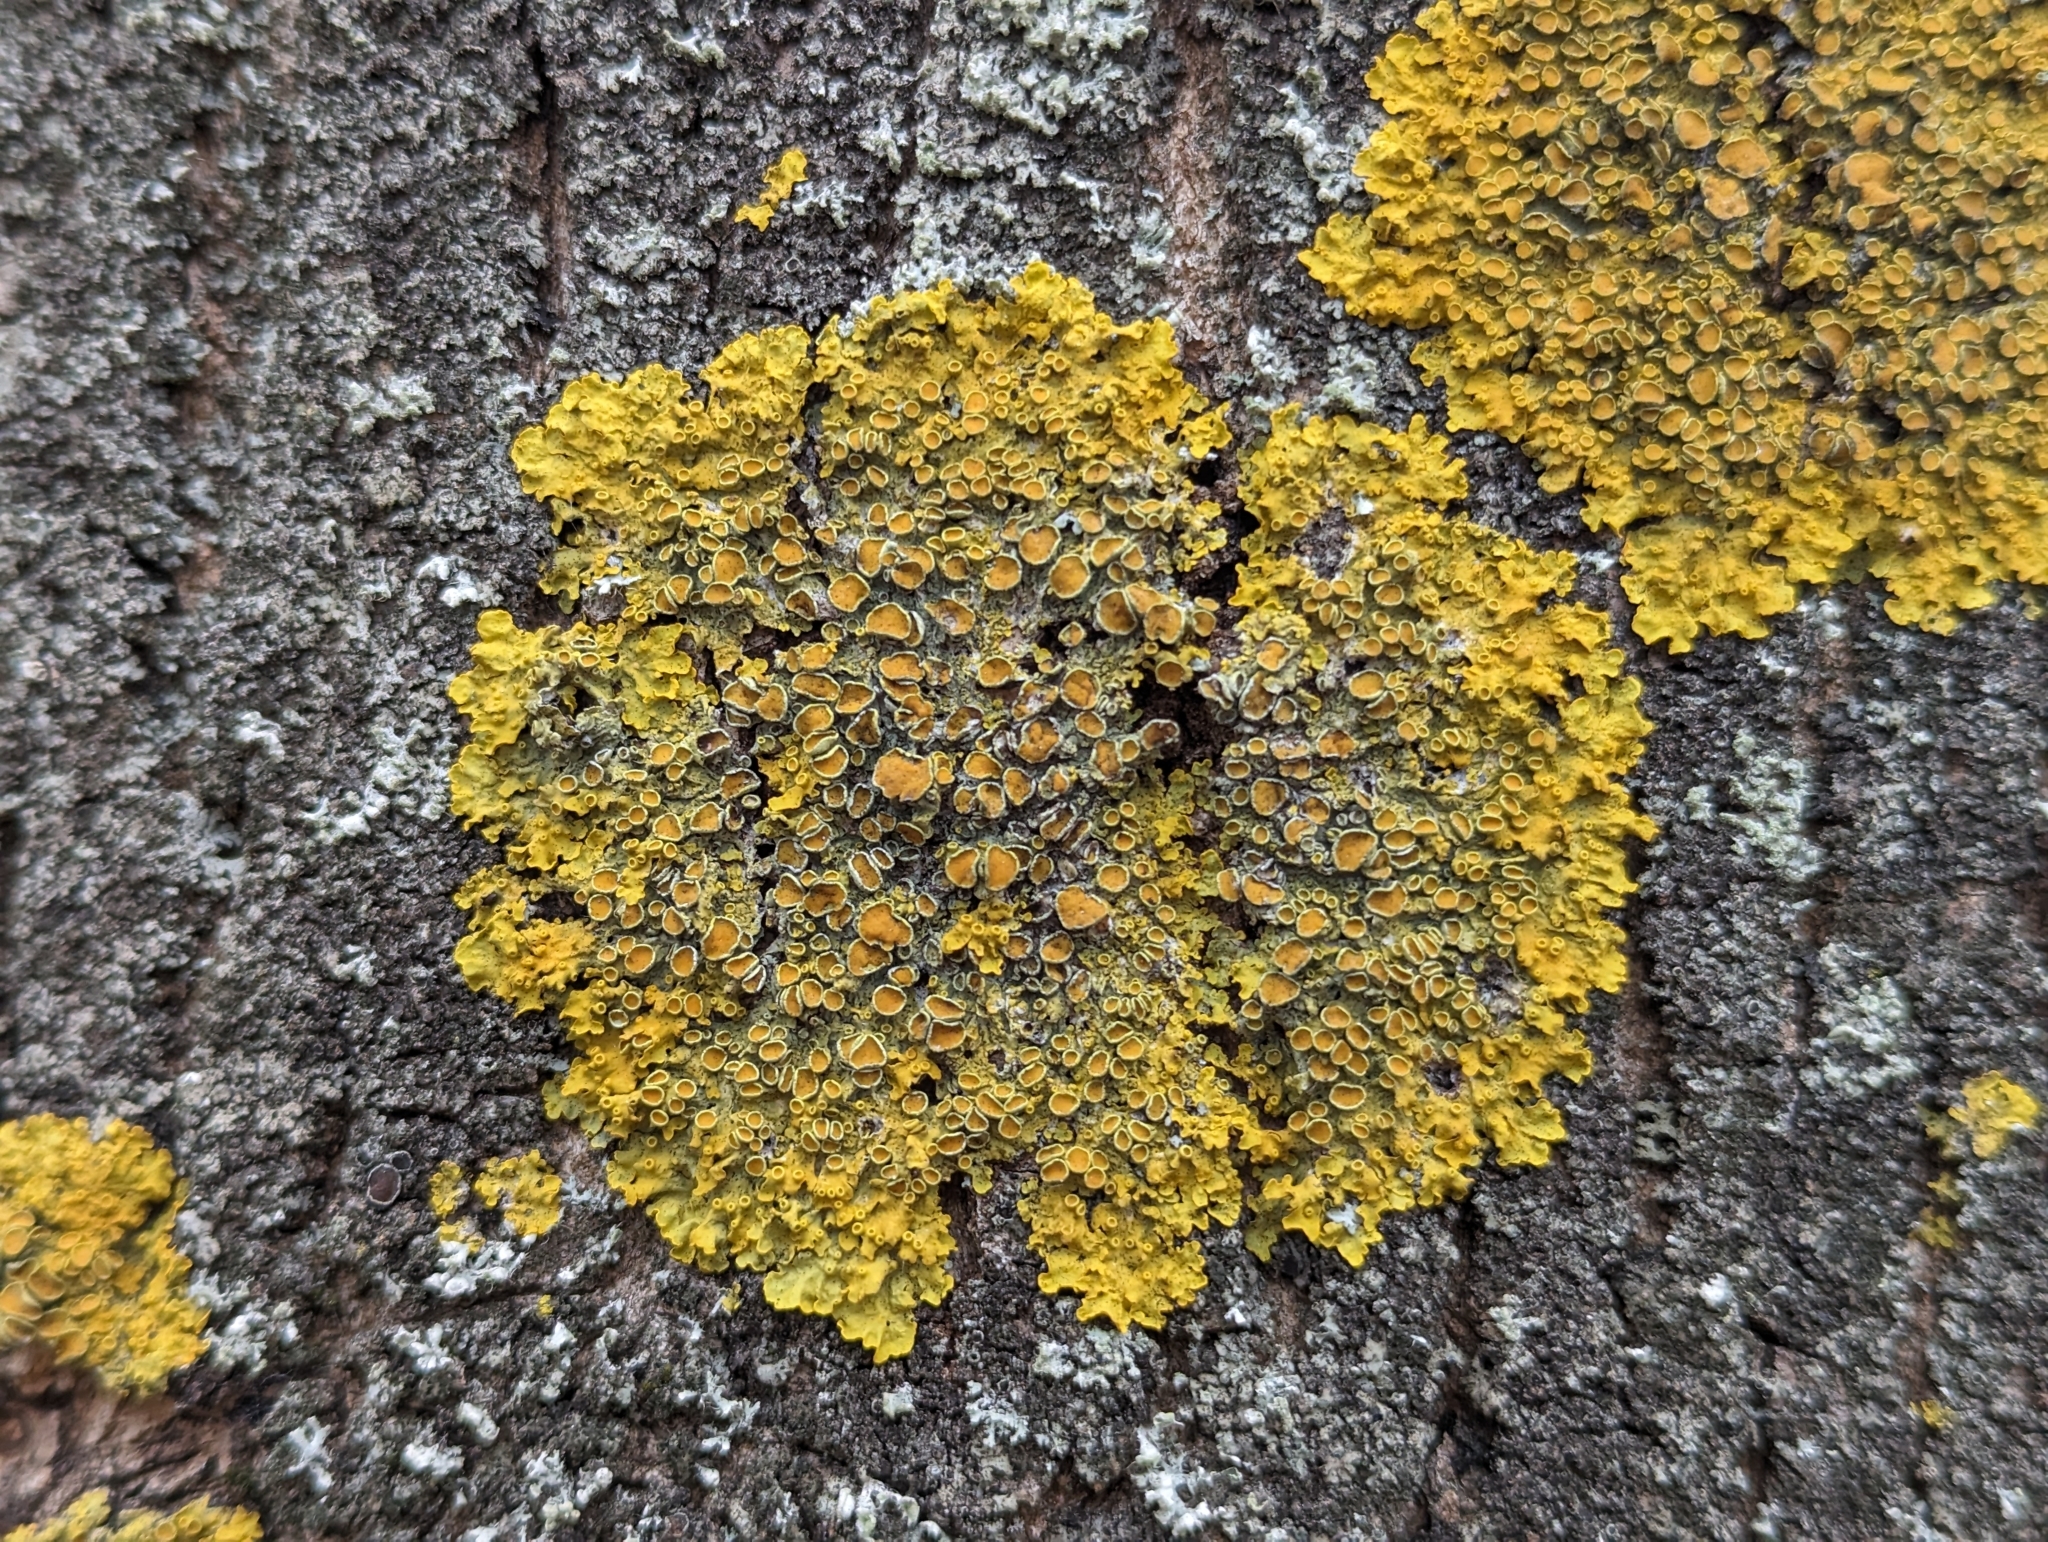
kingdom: Fungi
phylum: Ascomycota
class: Lecanoromycetes
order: Teloschistales
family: Teloschistaceae
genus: Xanthoria
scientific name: Xanthoria parietina
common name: Common orange lichen
